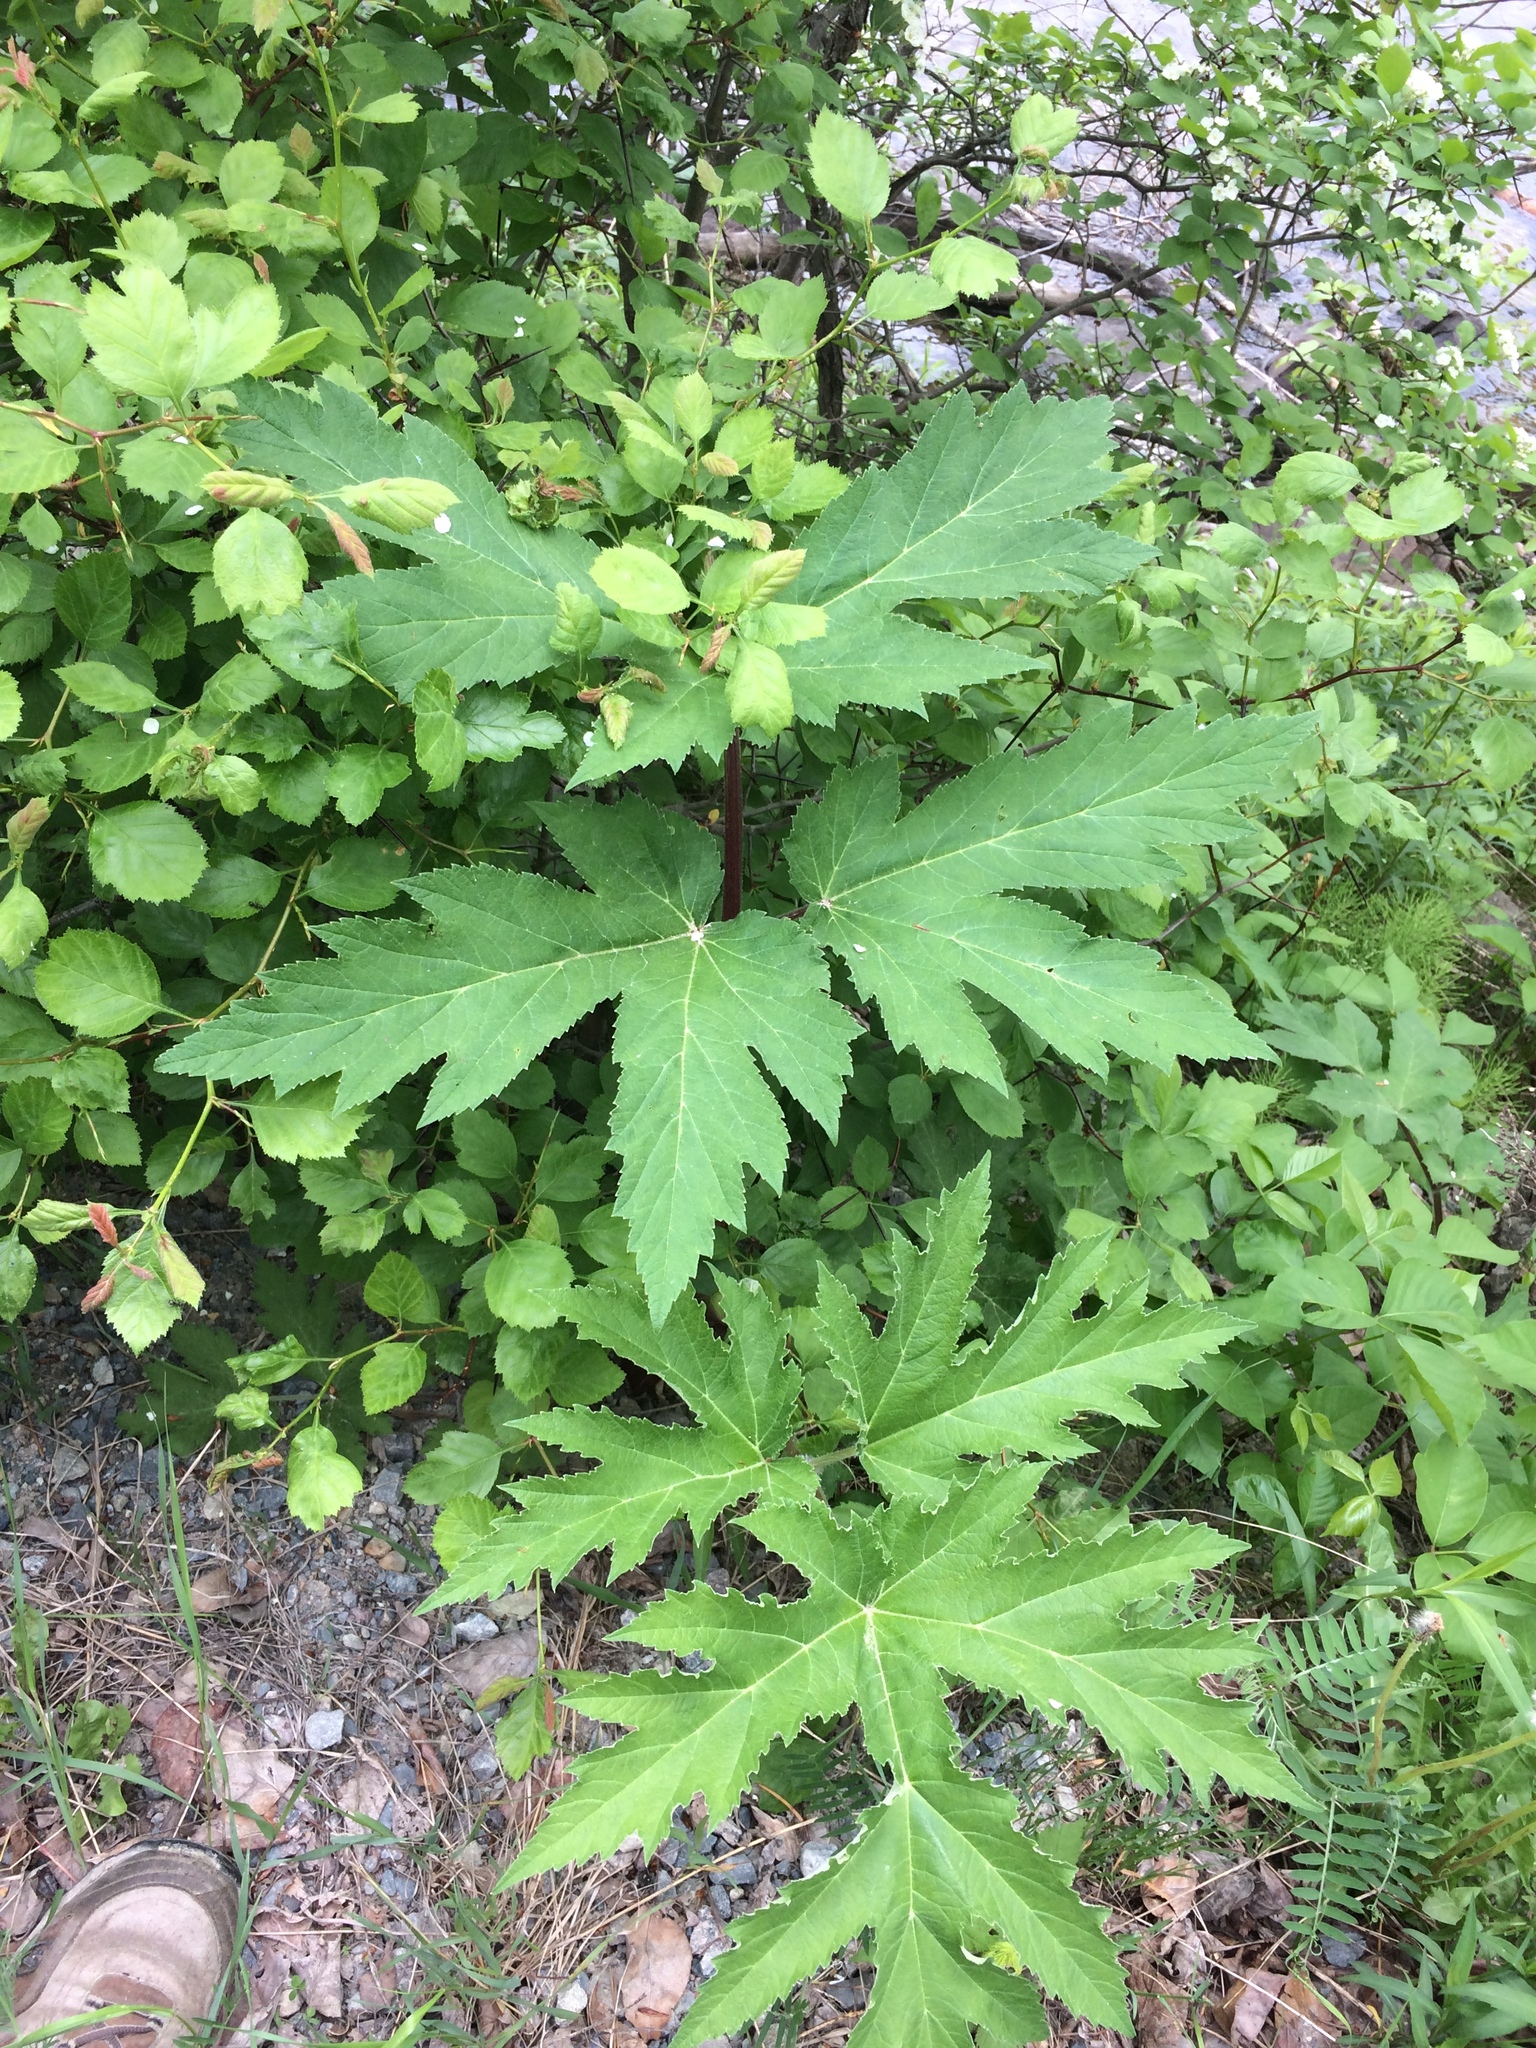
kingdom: Plantae
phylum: Tracheophyta
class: Magnoliopsida
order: Apiales
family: Apiaceae
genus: Heracleum
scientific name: Heracleum maximum
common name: American cow parsnip
